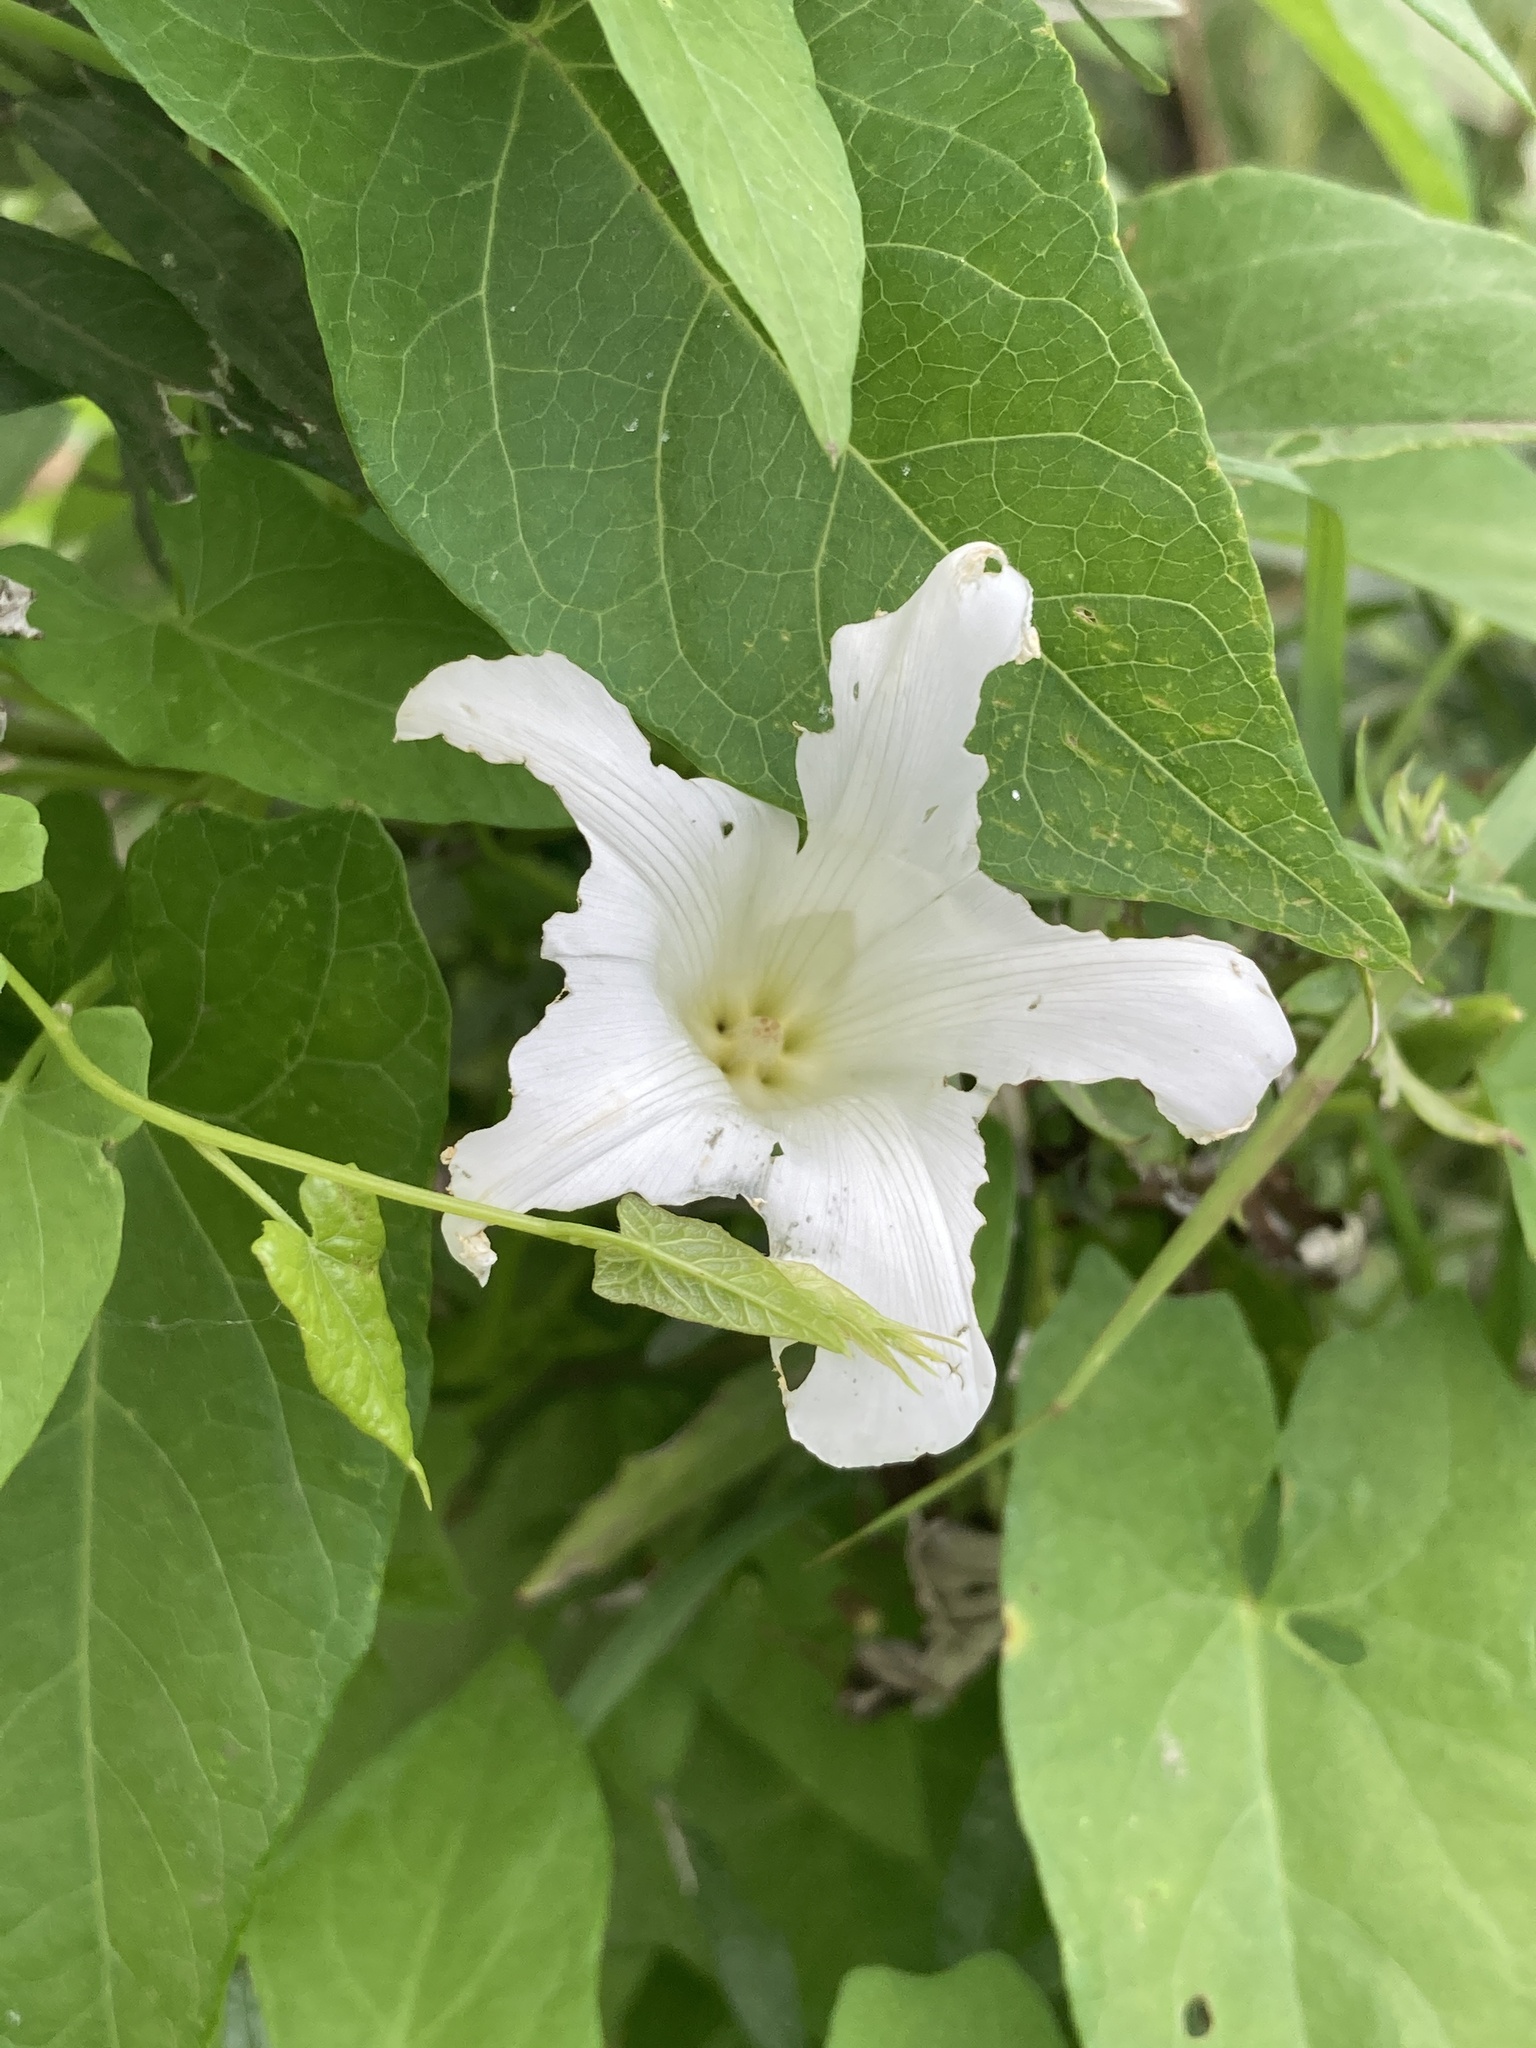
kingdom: Plantae
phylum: Tracheophyta
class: Magnoliopsida
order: Solanales
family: Convolvulaceae
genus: Calystegia
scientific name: Calystegia sepium
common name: Hedge bindweed
